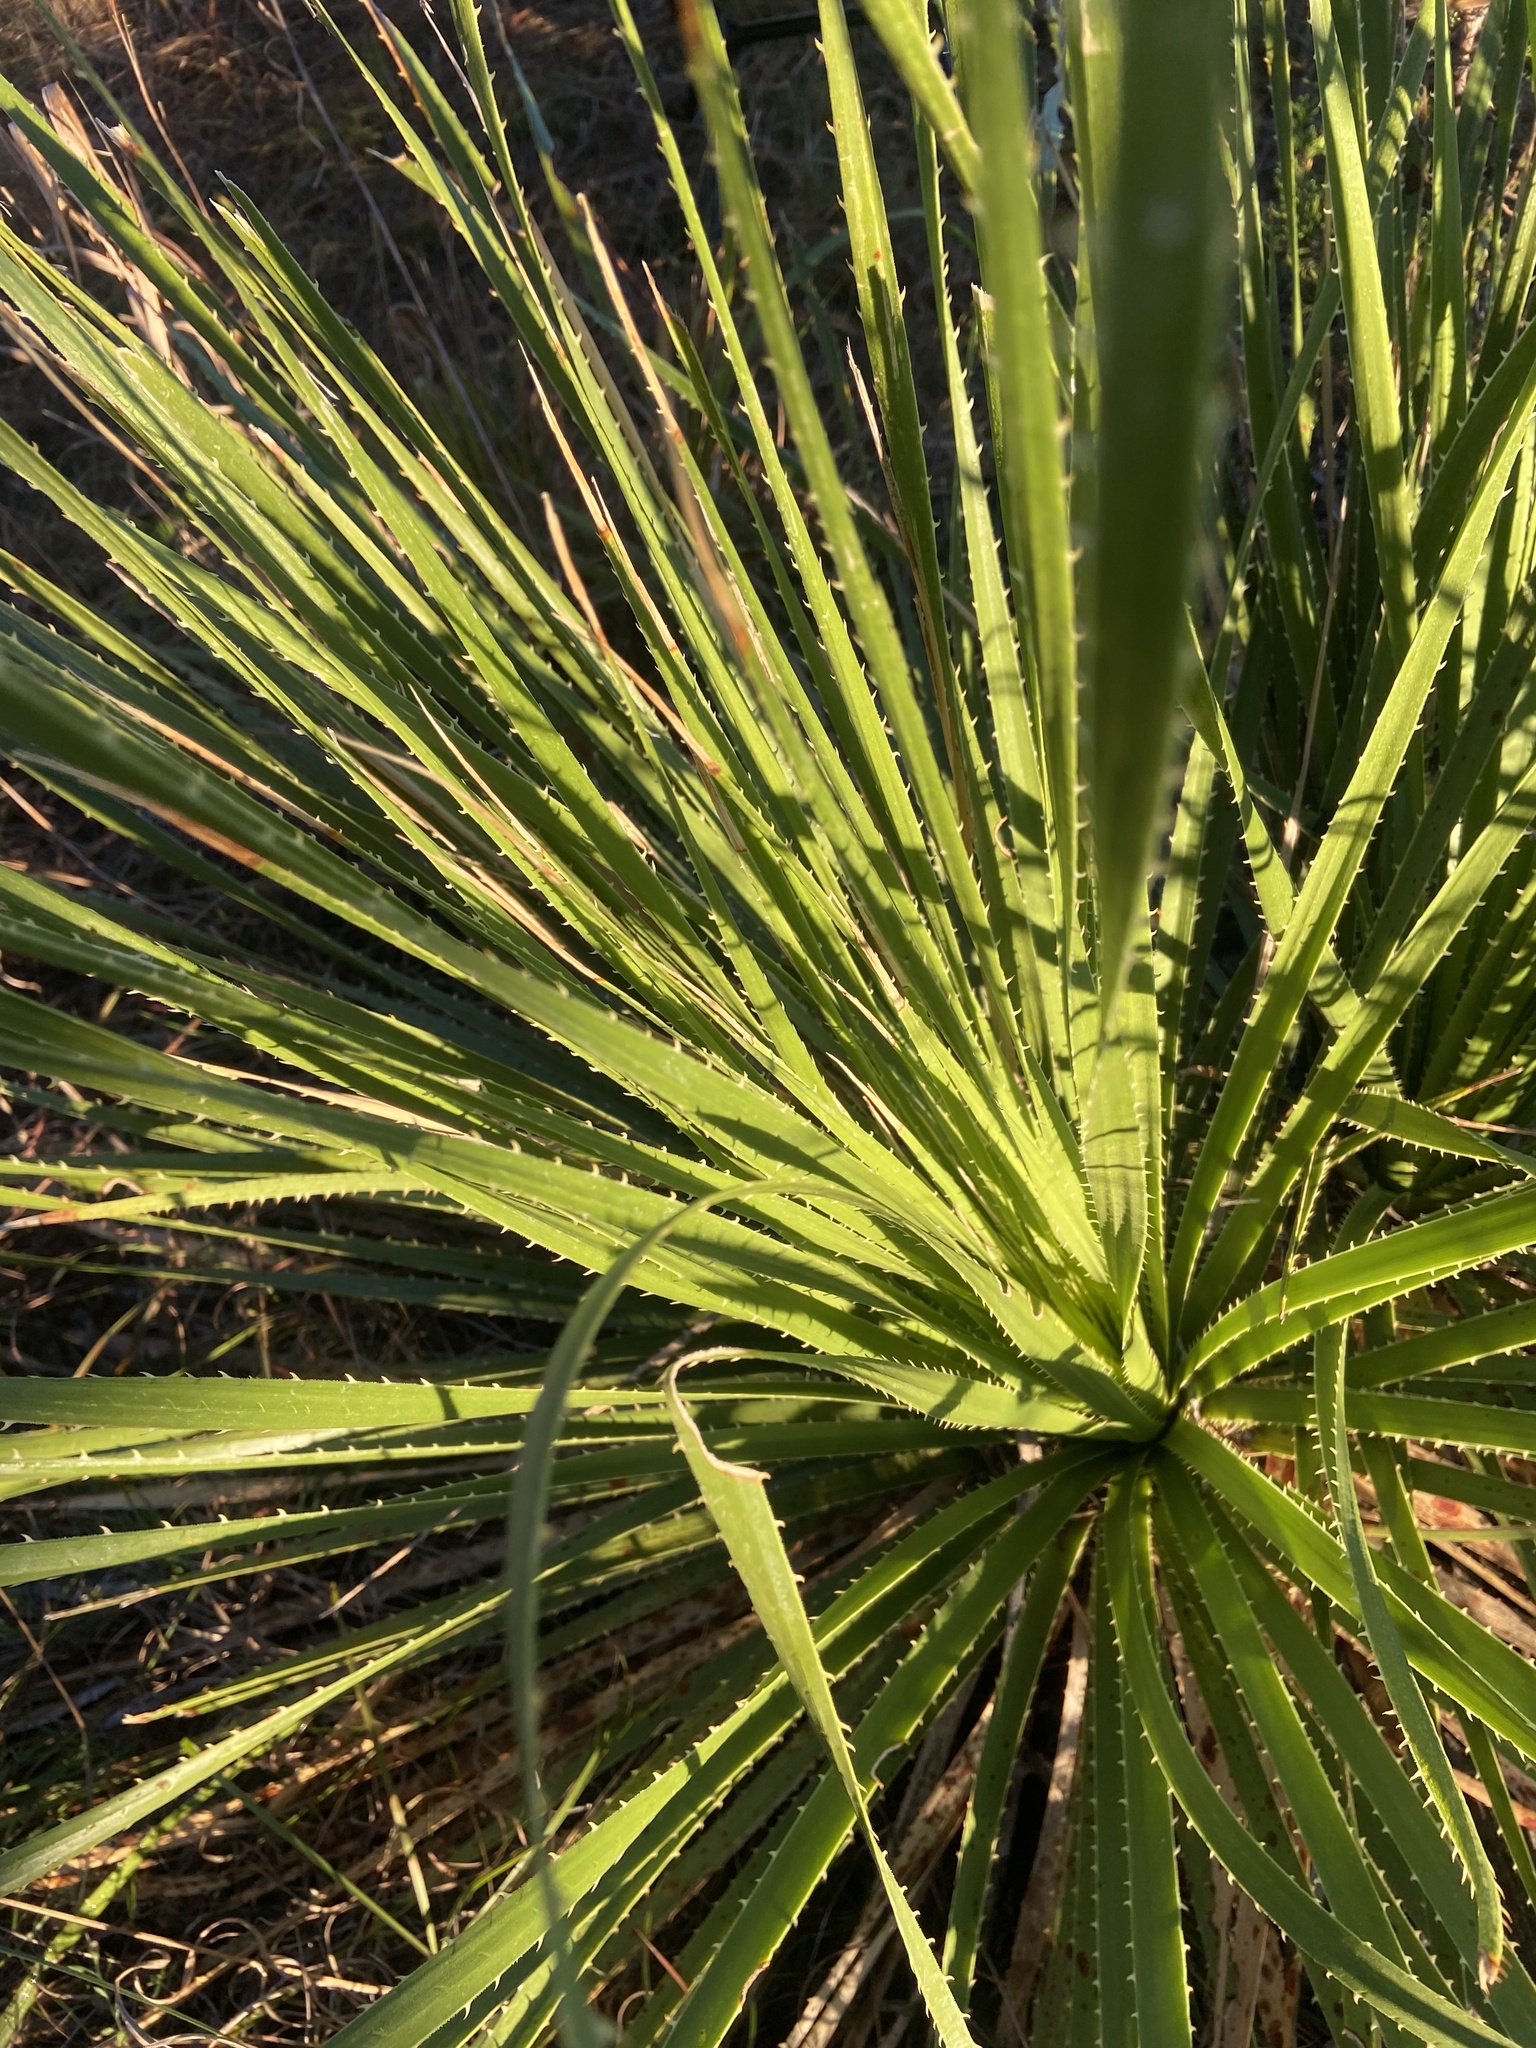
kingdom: Plantae
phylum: Tracheophyta
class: Liliopsida
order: Asparagales
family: Asparagaceae
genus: Dasylirion
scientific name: Dasylirion texanum
